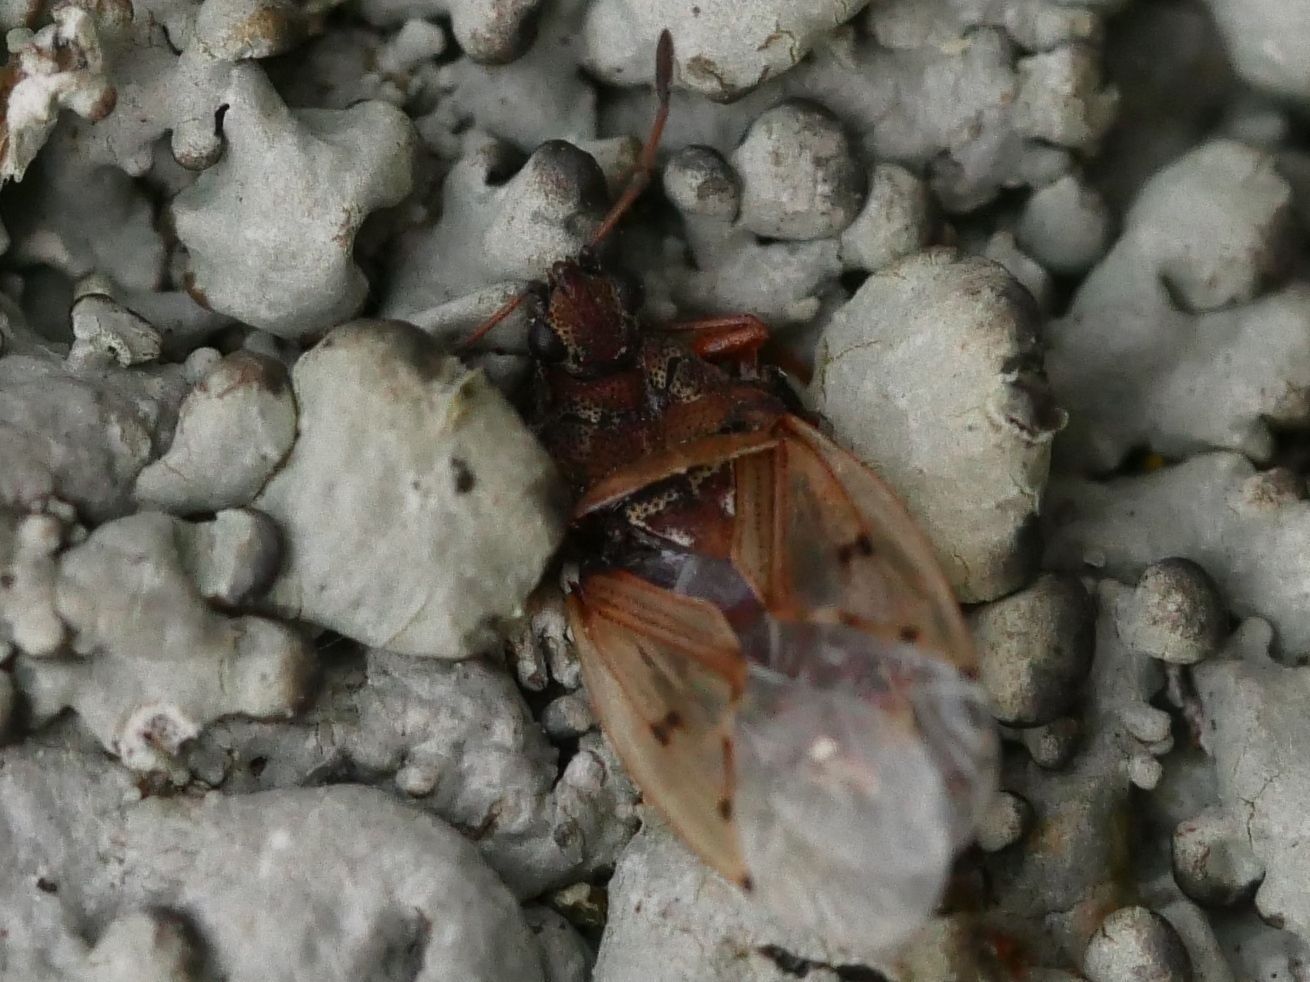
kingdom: Animalia
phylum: Arthropoda
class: Insecta
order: Hemiptera
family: Lygaeidae
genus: Kleidocerys
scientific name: Kleidocerys resedae
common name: Birch catkin bug
